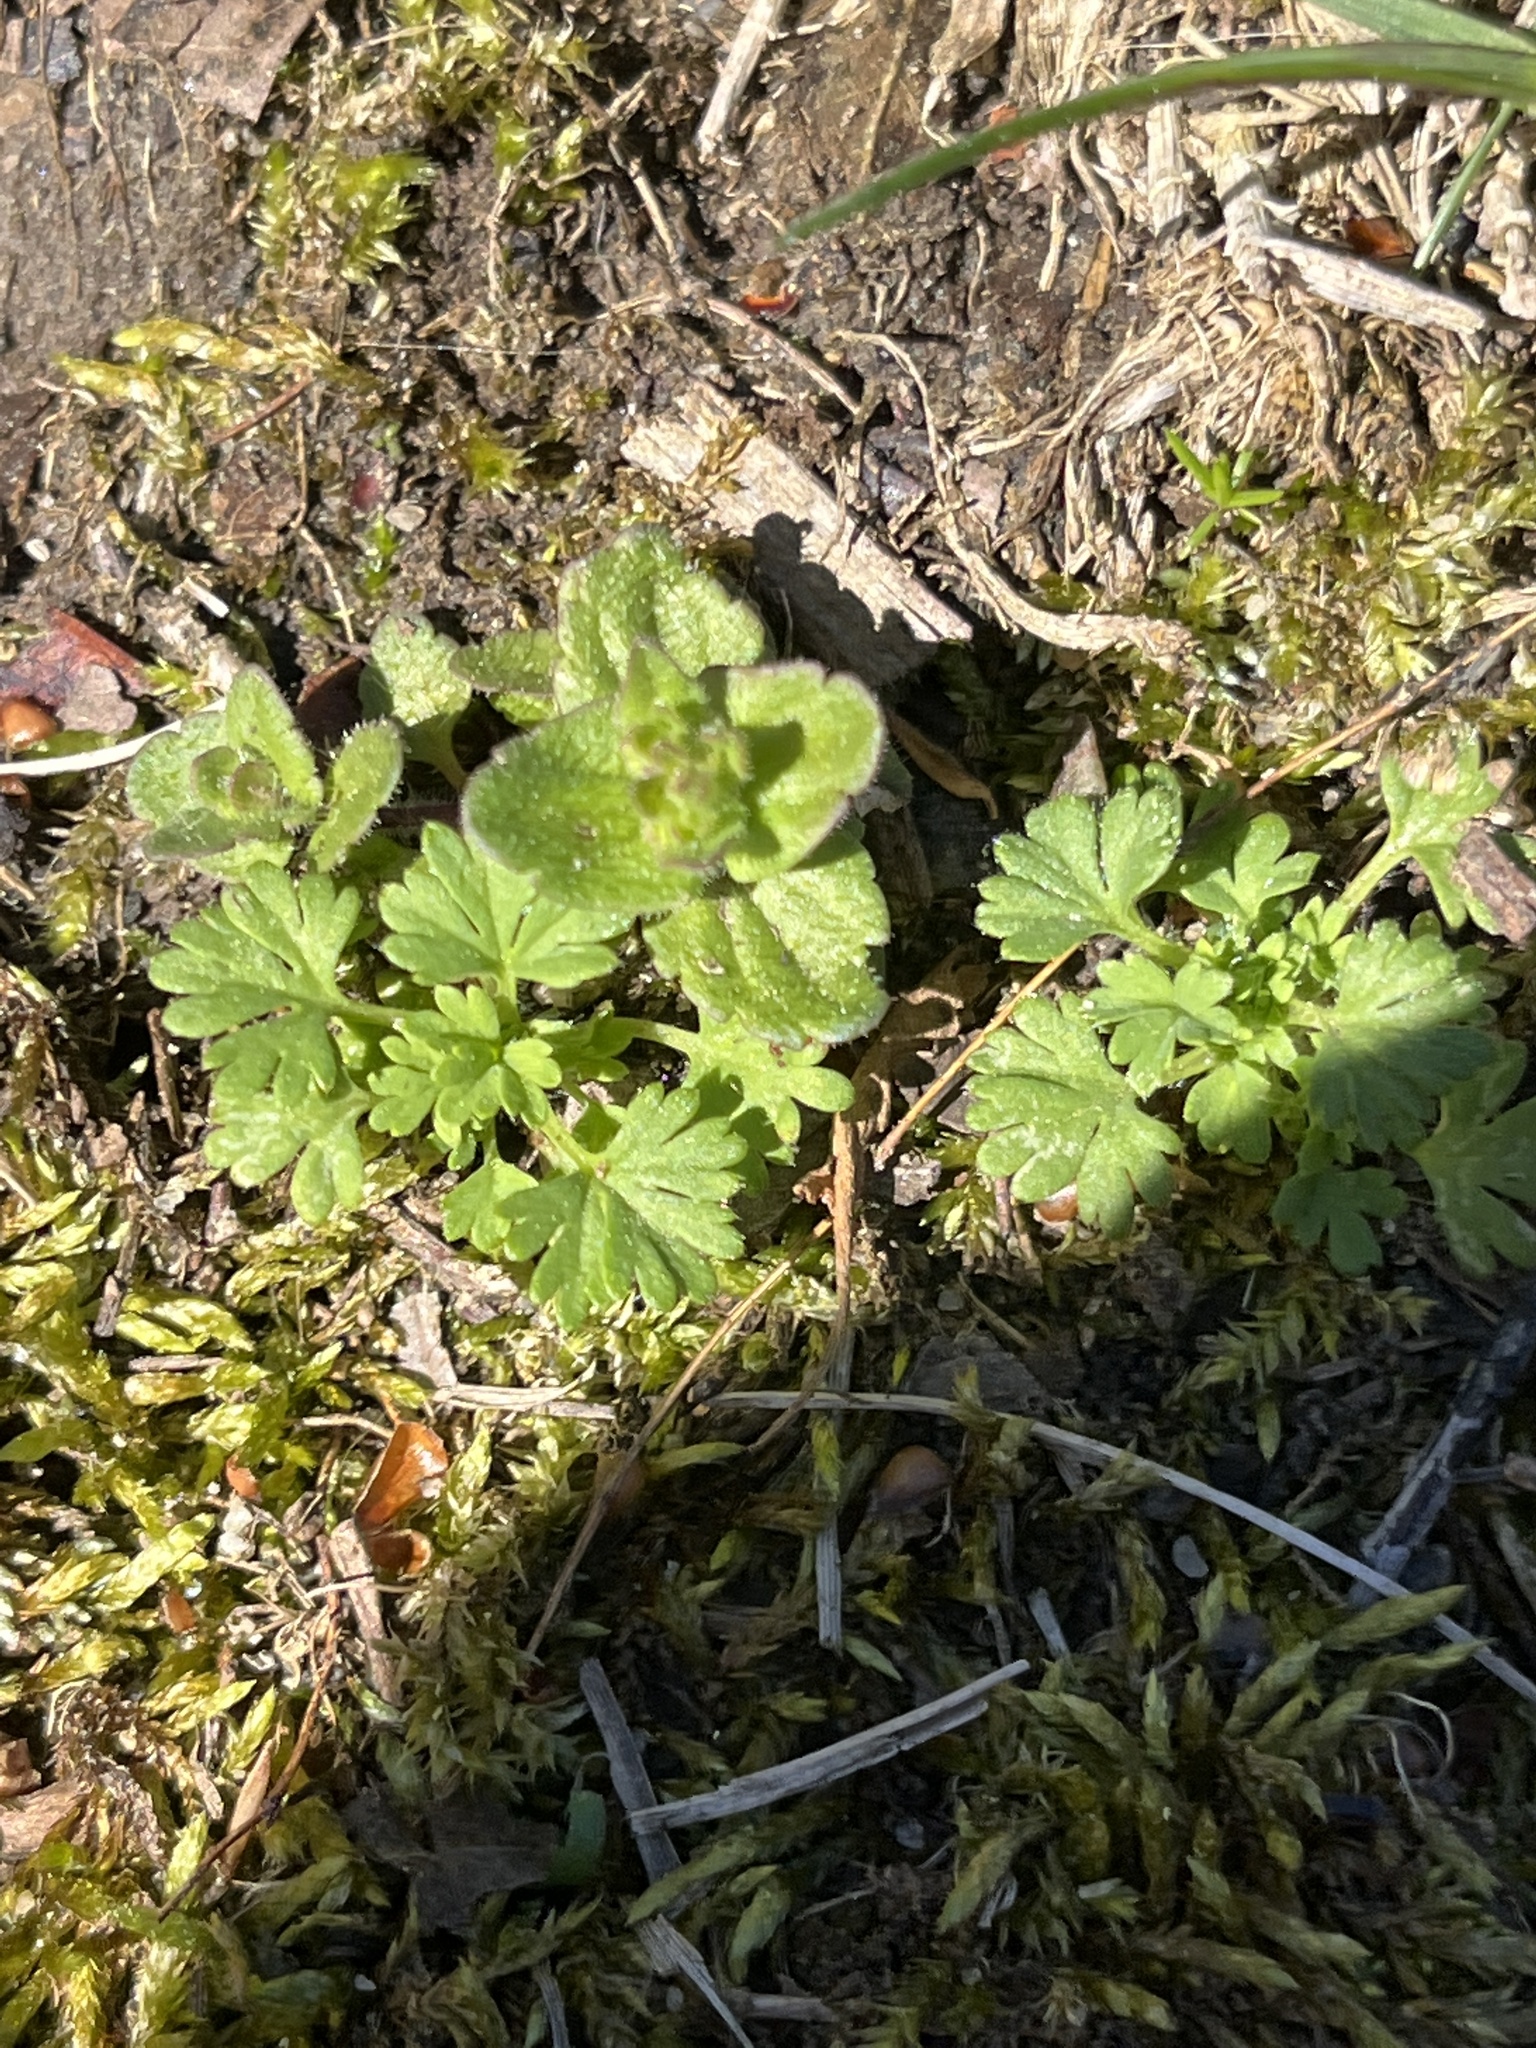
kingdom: Plantae
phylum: Tracheophyta
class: Magnoliopsida
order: Lamiales
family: Plantaginaceae
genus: Veronica
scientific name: Veronica arvensis
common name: Corn speedwell
